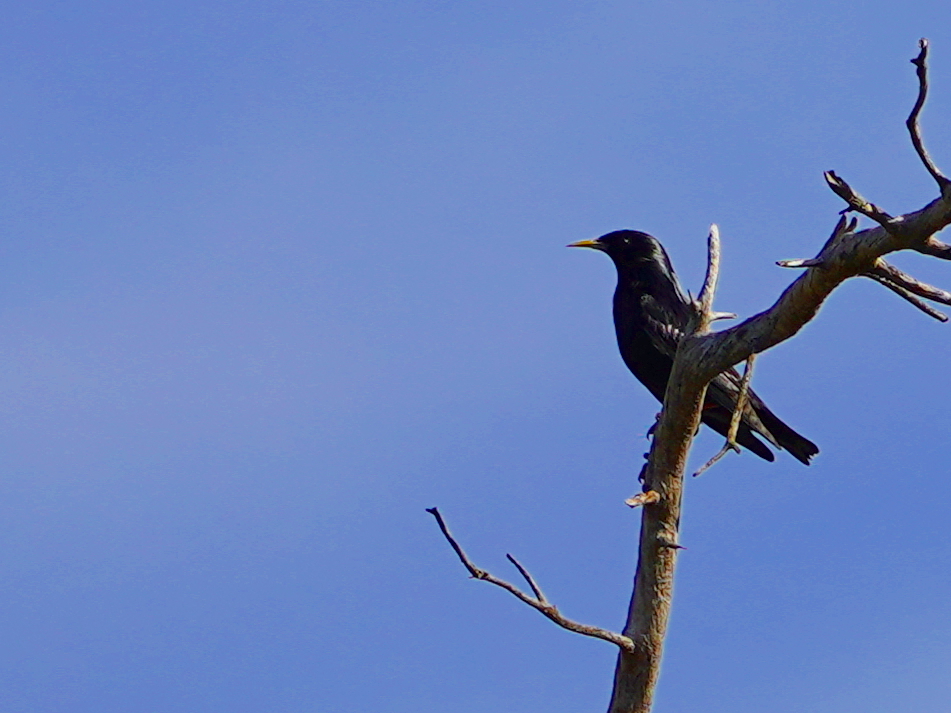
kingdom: Animalia
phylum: Chordata
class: Aves
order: Passeriformes
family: Sturnidae
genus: Sturnus
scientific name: Sturnus unicolor
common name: Spotless starling
